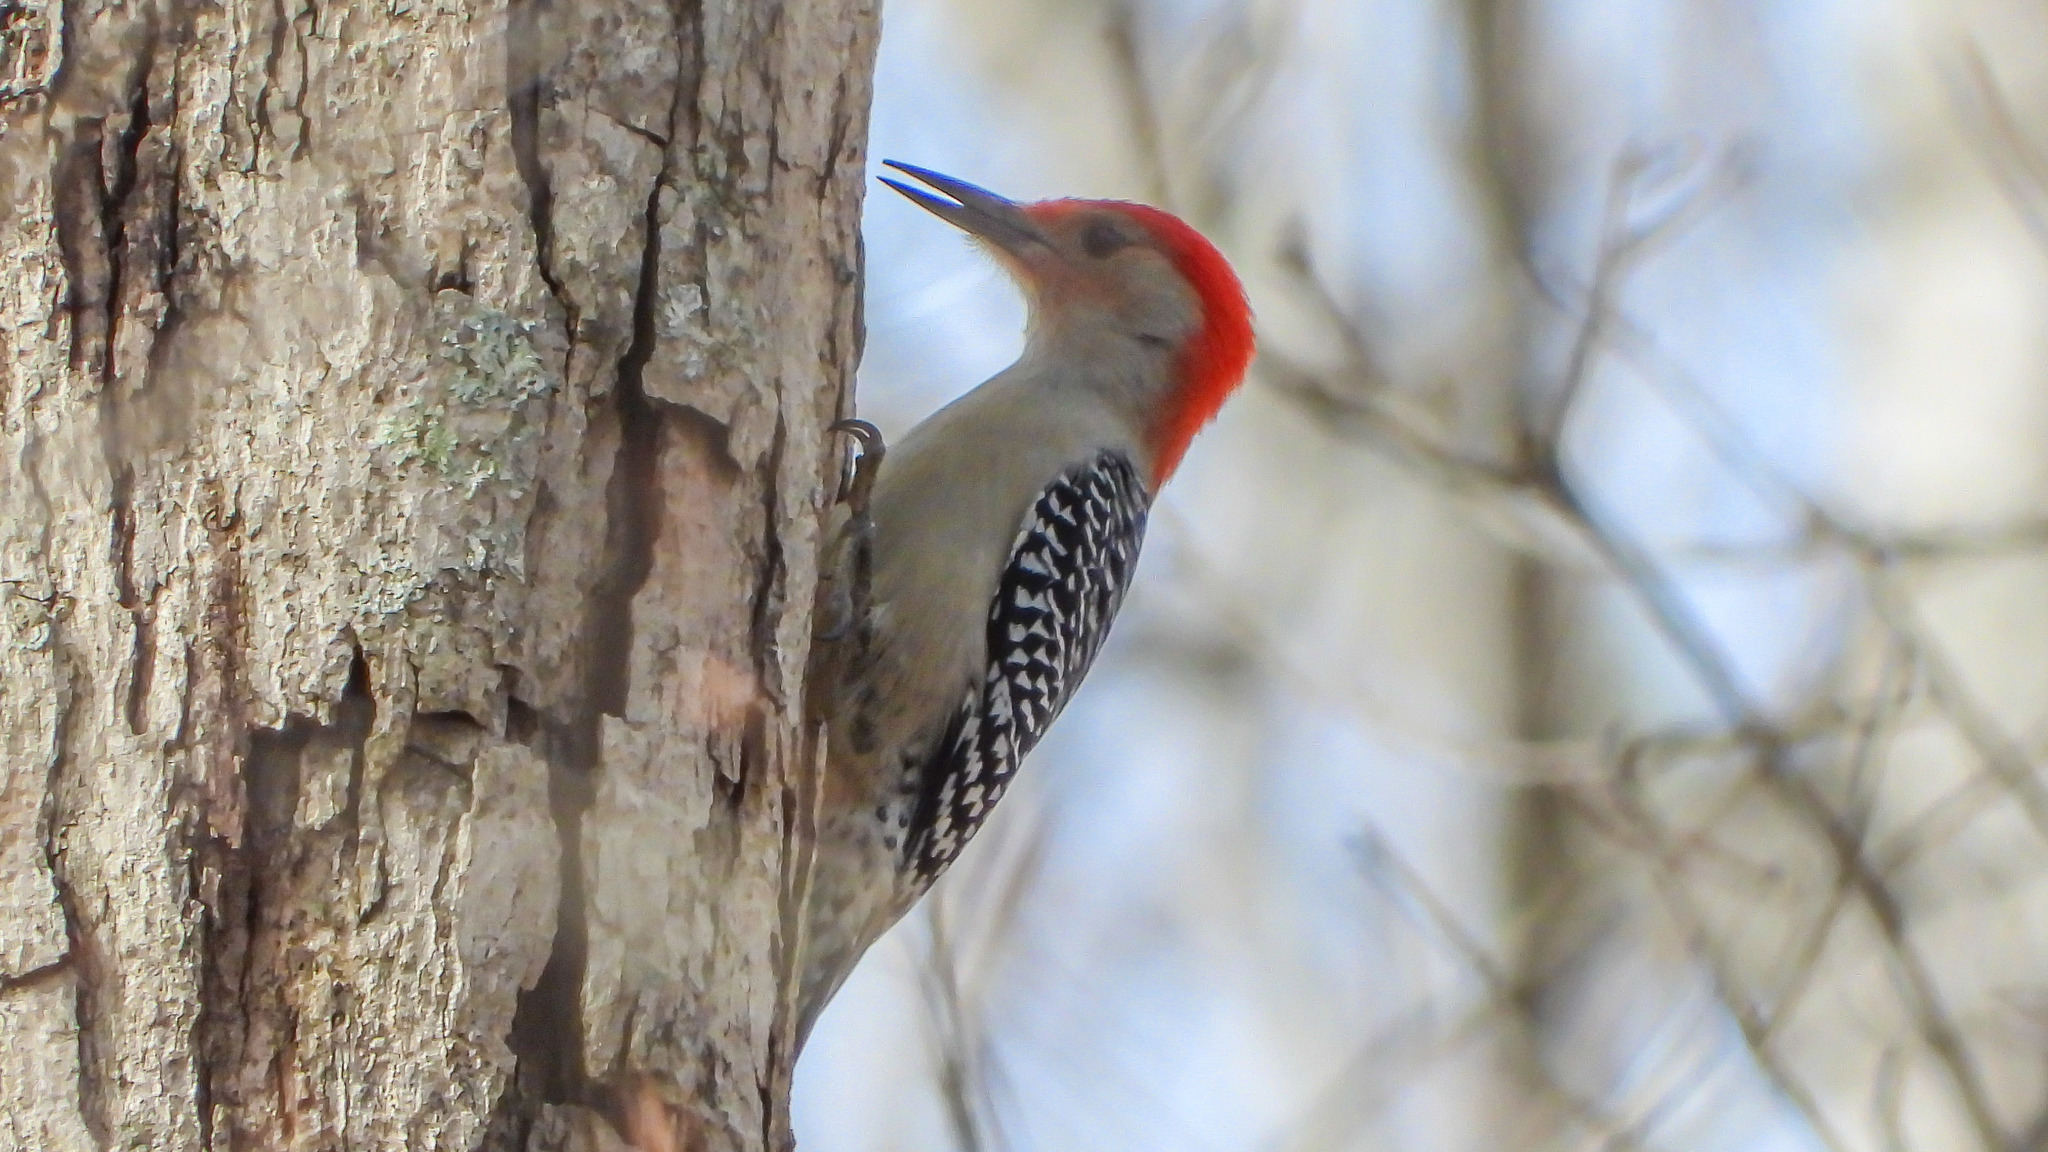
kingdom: Animalia
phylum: Chordata
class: Aves
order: Piciformes
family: Picidae
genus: Melanerpes
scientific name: Melanerpes carolinus
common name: Red-bellied woodpecker
